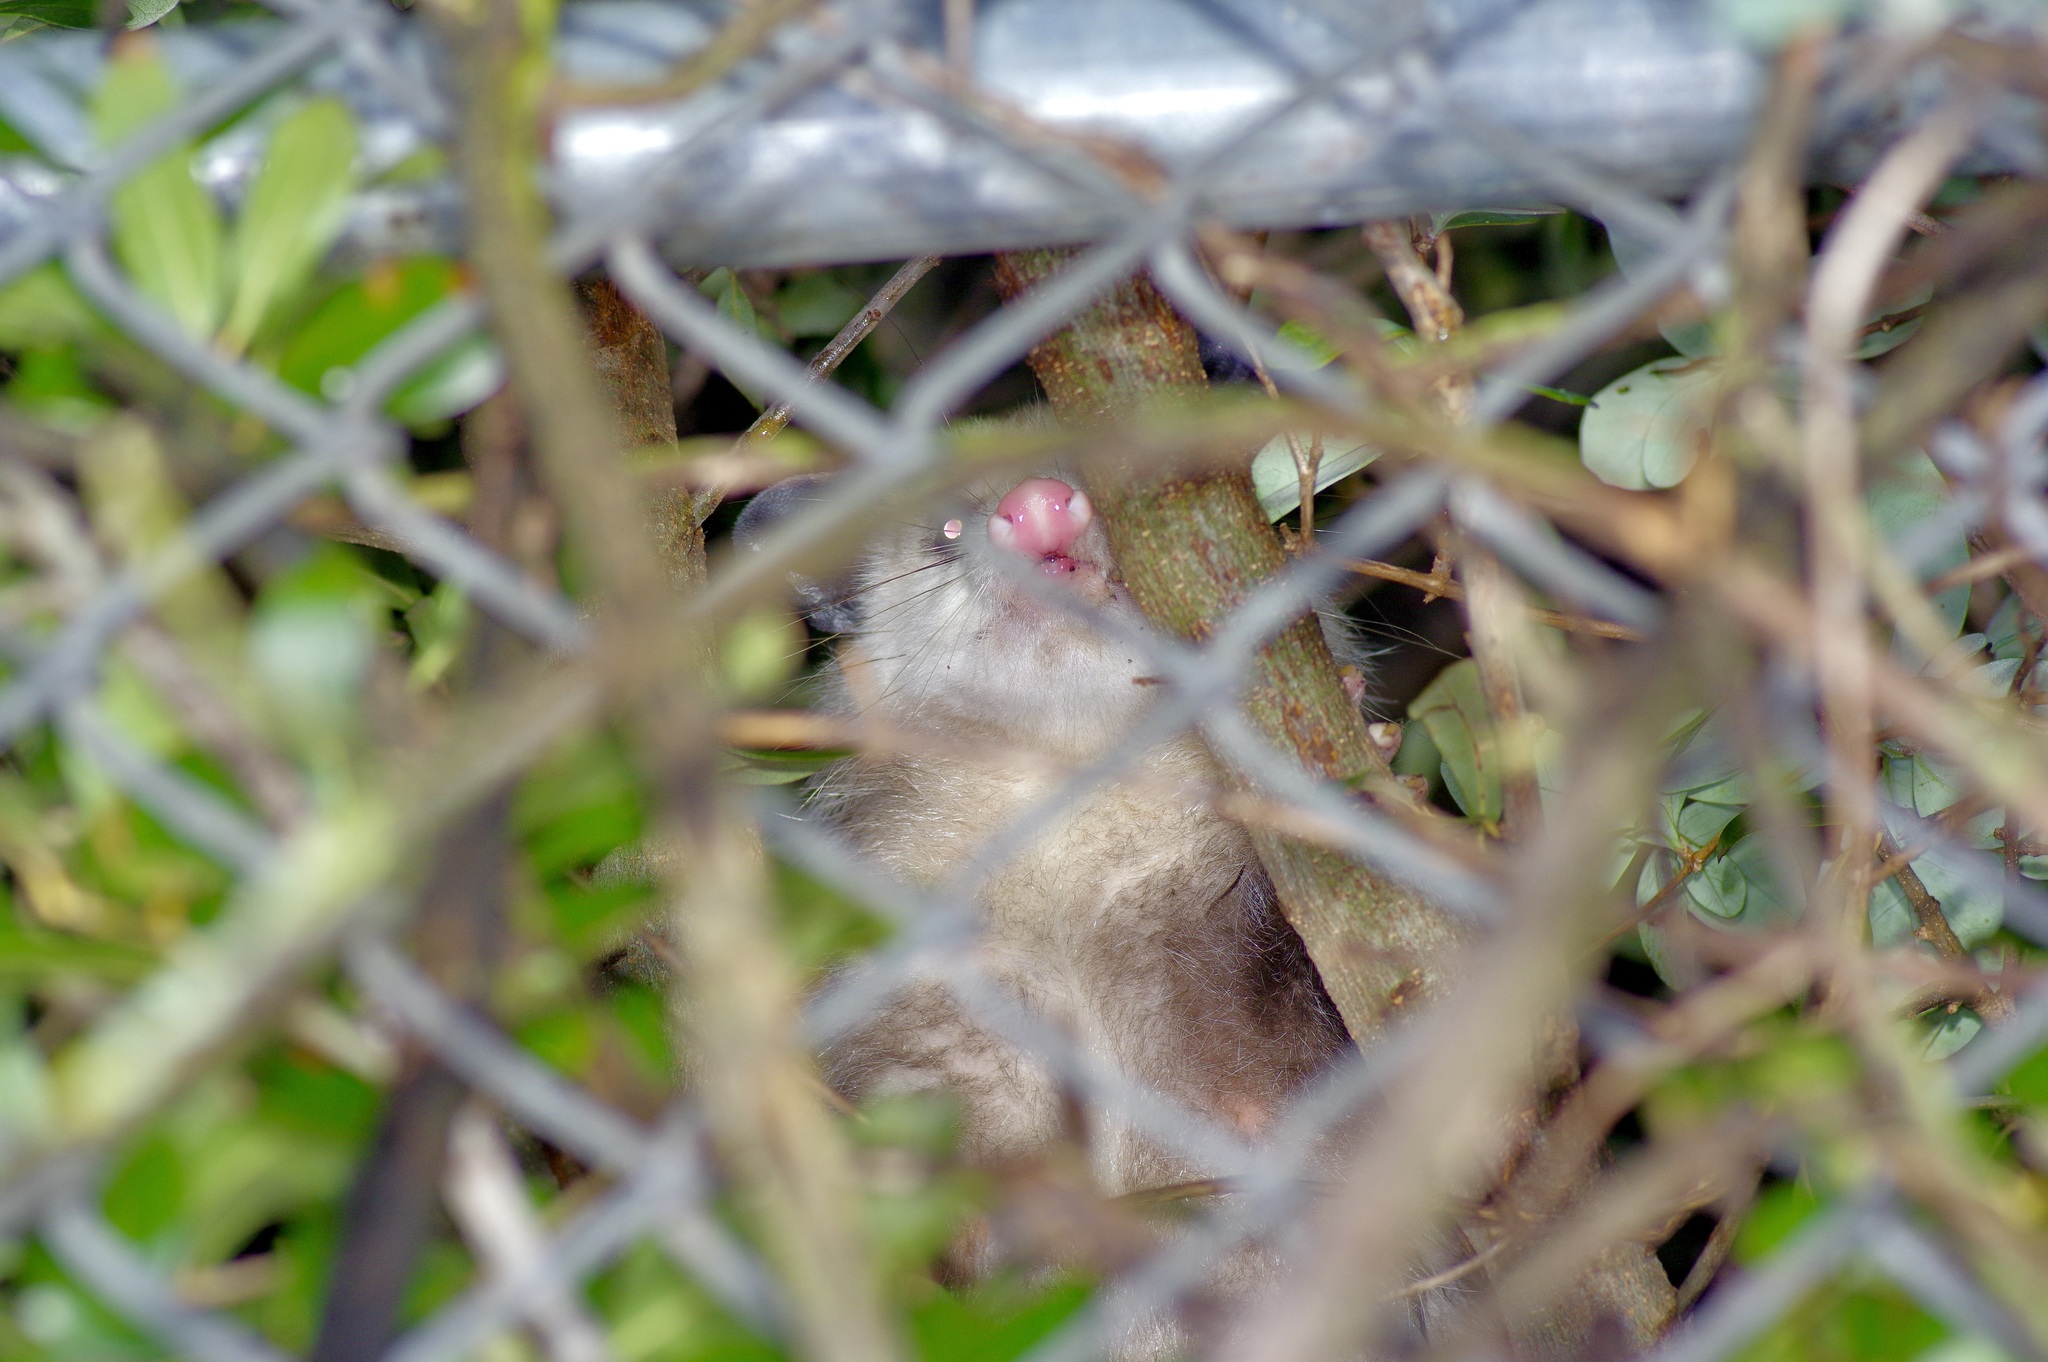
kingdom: Animalia
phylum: Chordata
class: Mammalia
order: Didelphimorphia
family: Didelphidae
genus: Didelphis
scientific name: Didelphis virginiana
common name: Virginia opossum
